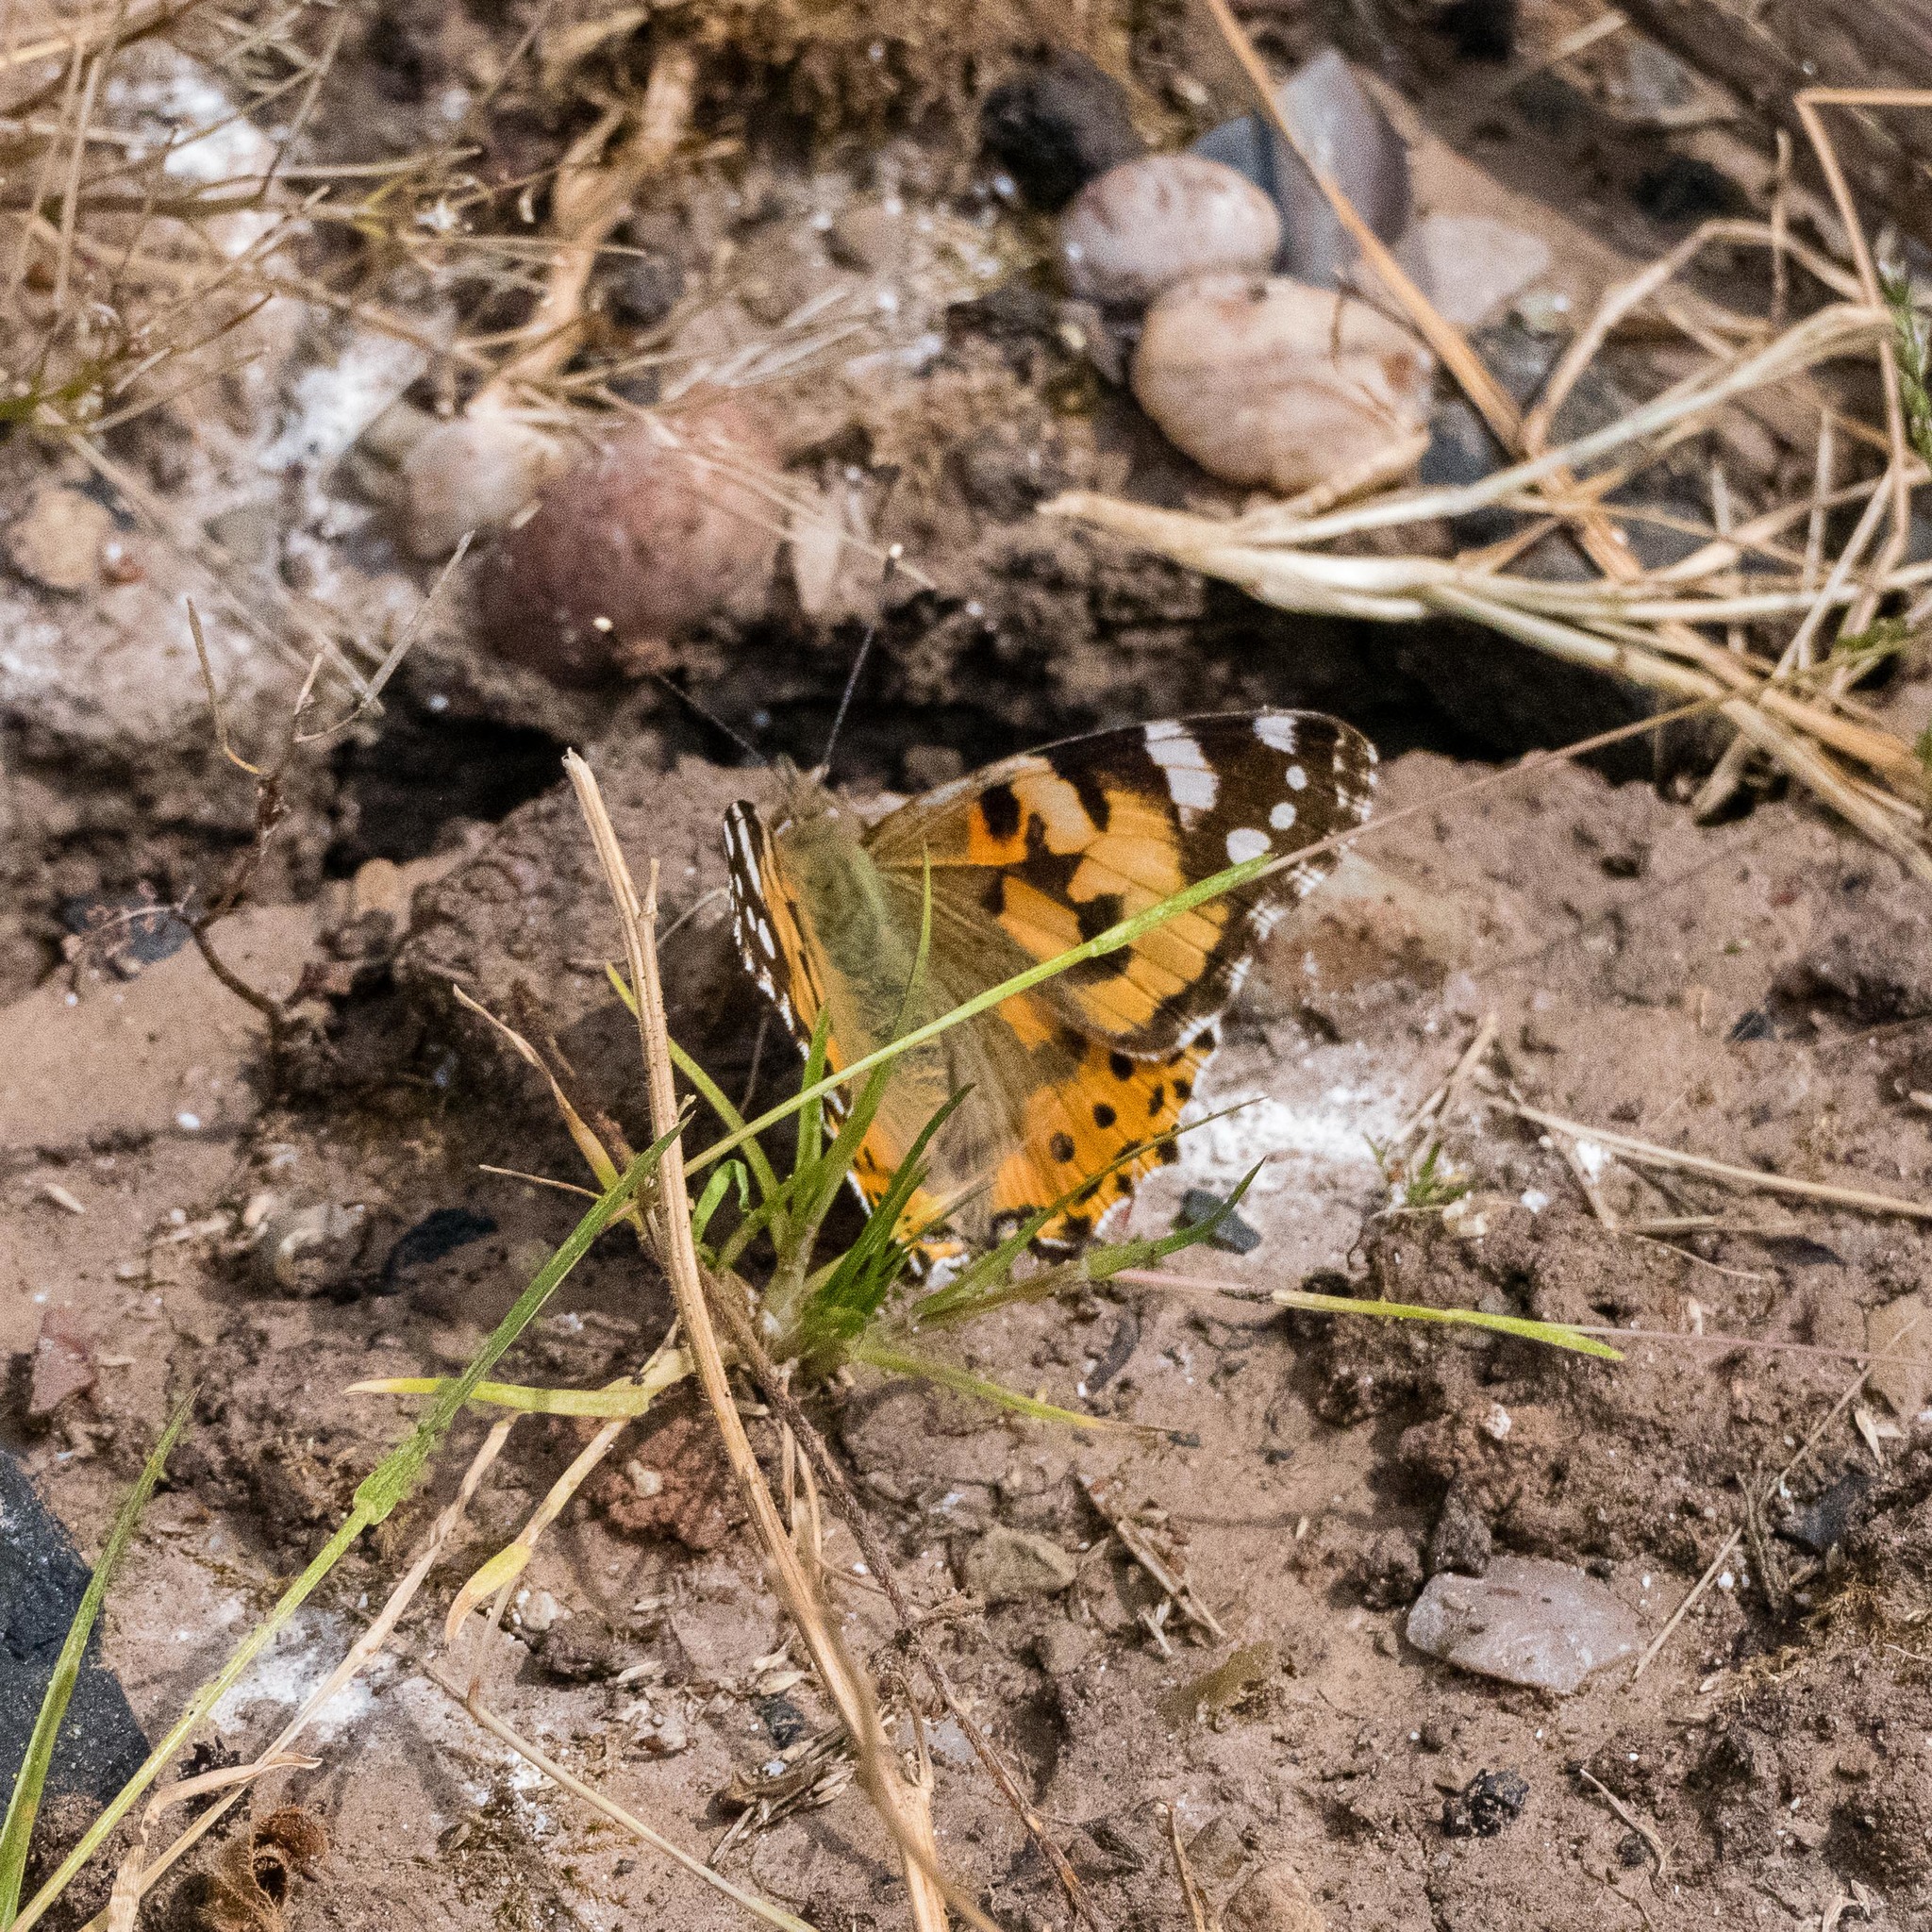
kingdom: Animalia
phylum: Arthropoda
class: Insecta
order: Lepidoptera
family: Nymphalidae
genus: Vanessa
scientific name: Vanessa cardui
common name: Painted lady
